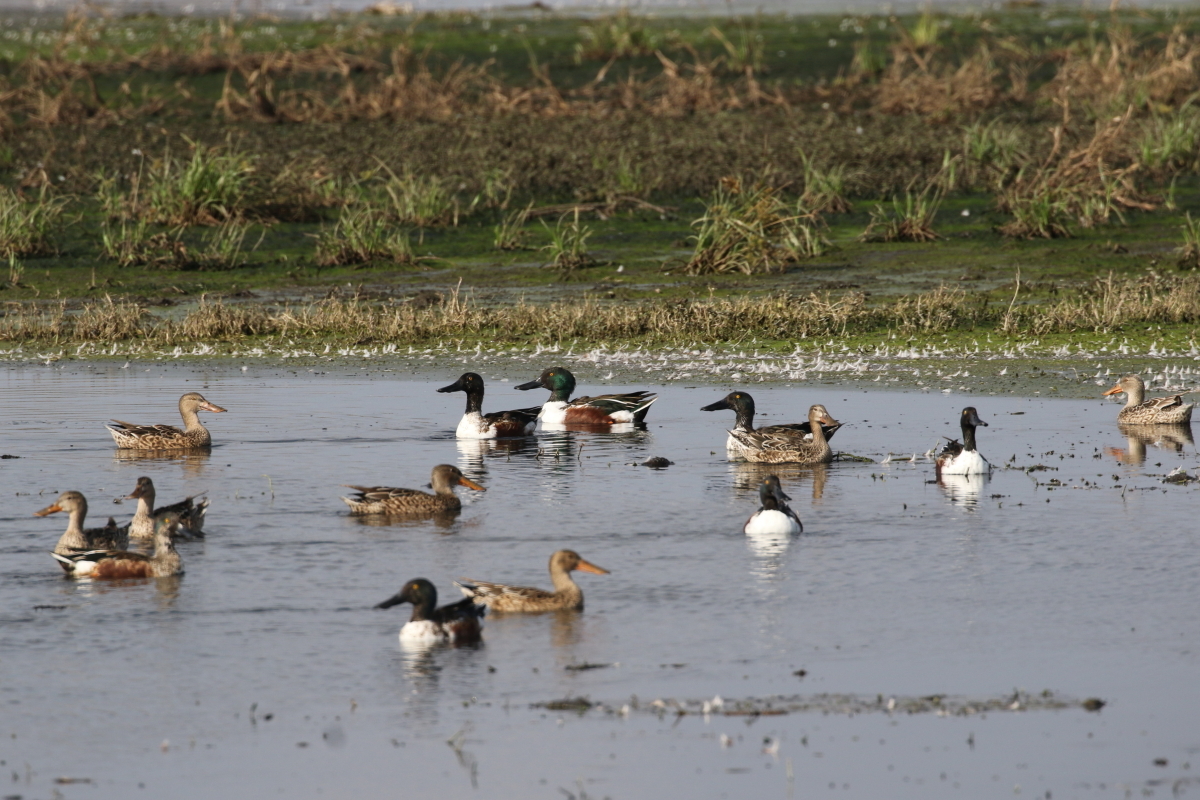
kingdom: Animalia
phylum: Chordata
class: Aves
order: Anseriformes
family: Anatidae
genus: Spatula
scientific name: Spatula clypeata
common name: Northern shoveler
